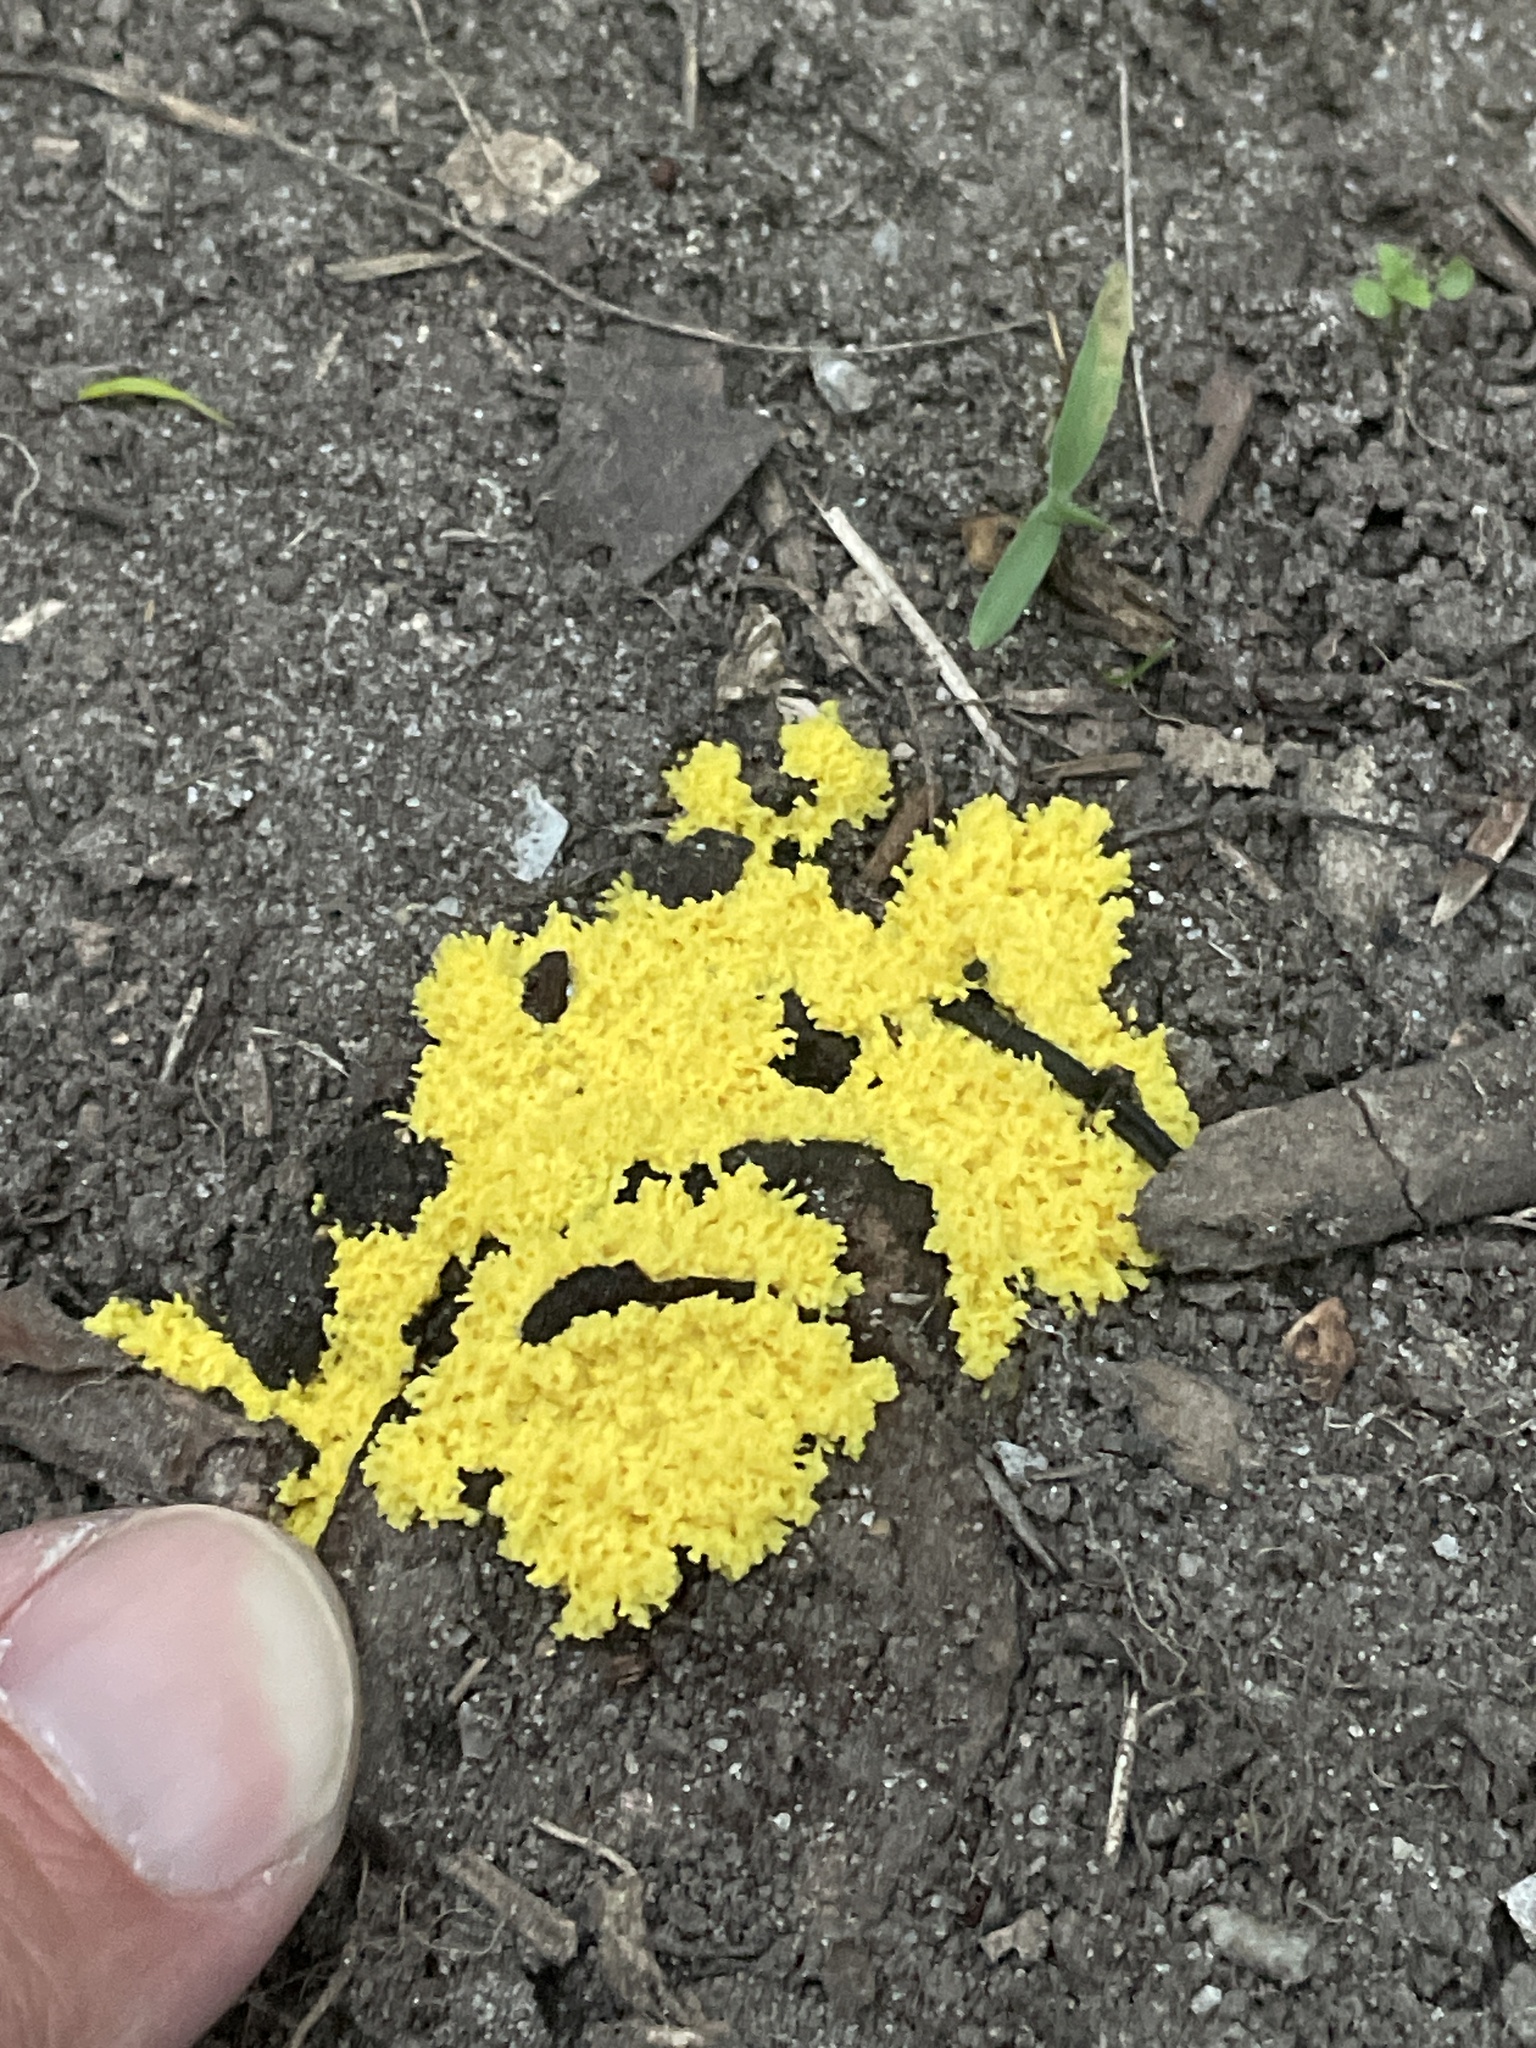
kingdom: Protozoa
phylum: Mycetozoa
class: Myxomycetes
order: Physarales
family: Physaraceae
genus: Fuligo
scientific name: Fuligo septica
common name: Dog vomit slime mold
